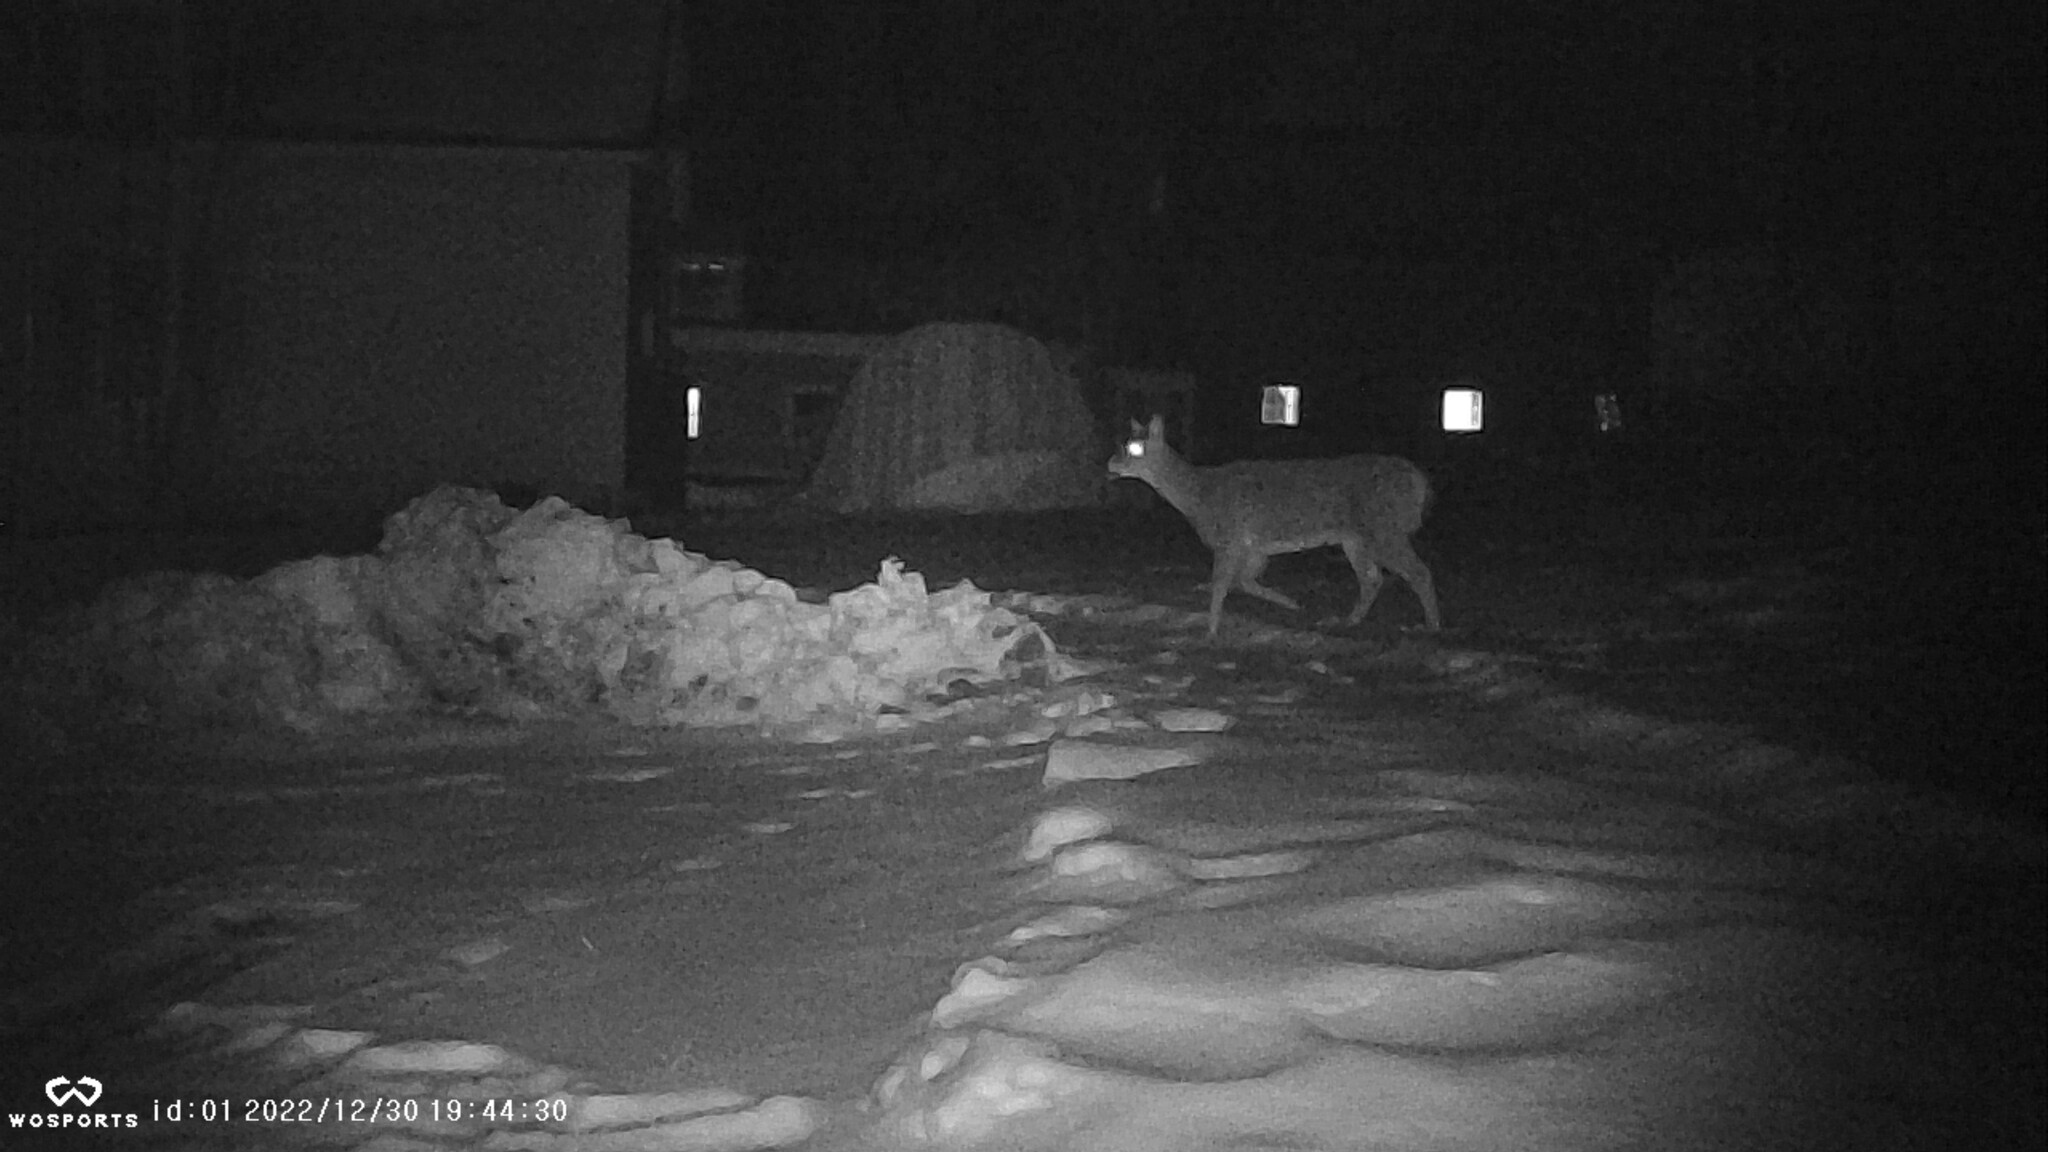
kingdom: Animalia
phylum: Chordata
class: Mammalia
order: Artiodactyla
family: Cervidae
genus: Odocoileus
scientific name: Odocoileus virginianus
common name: White-tailed deer
